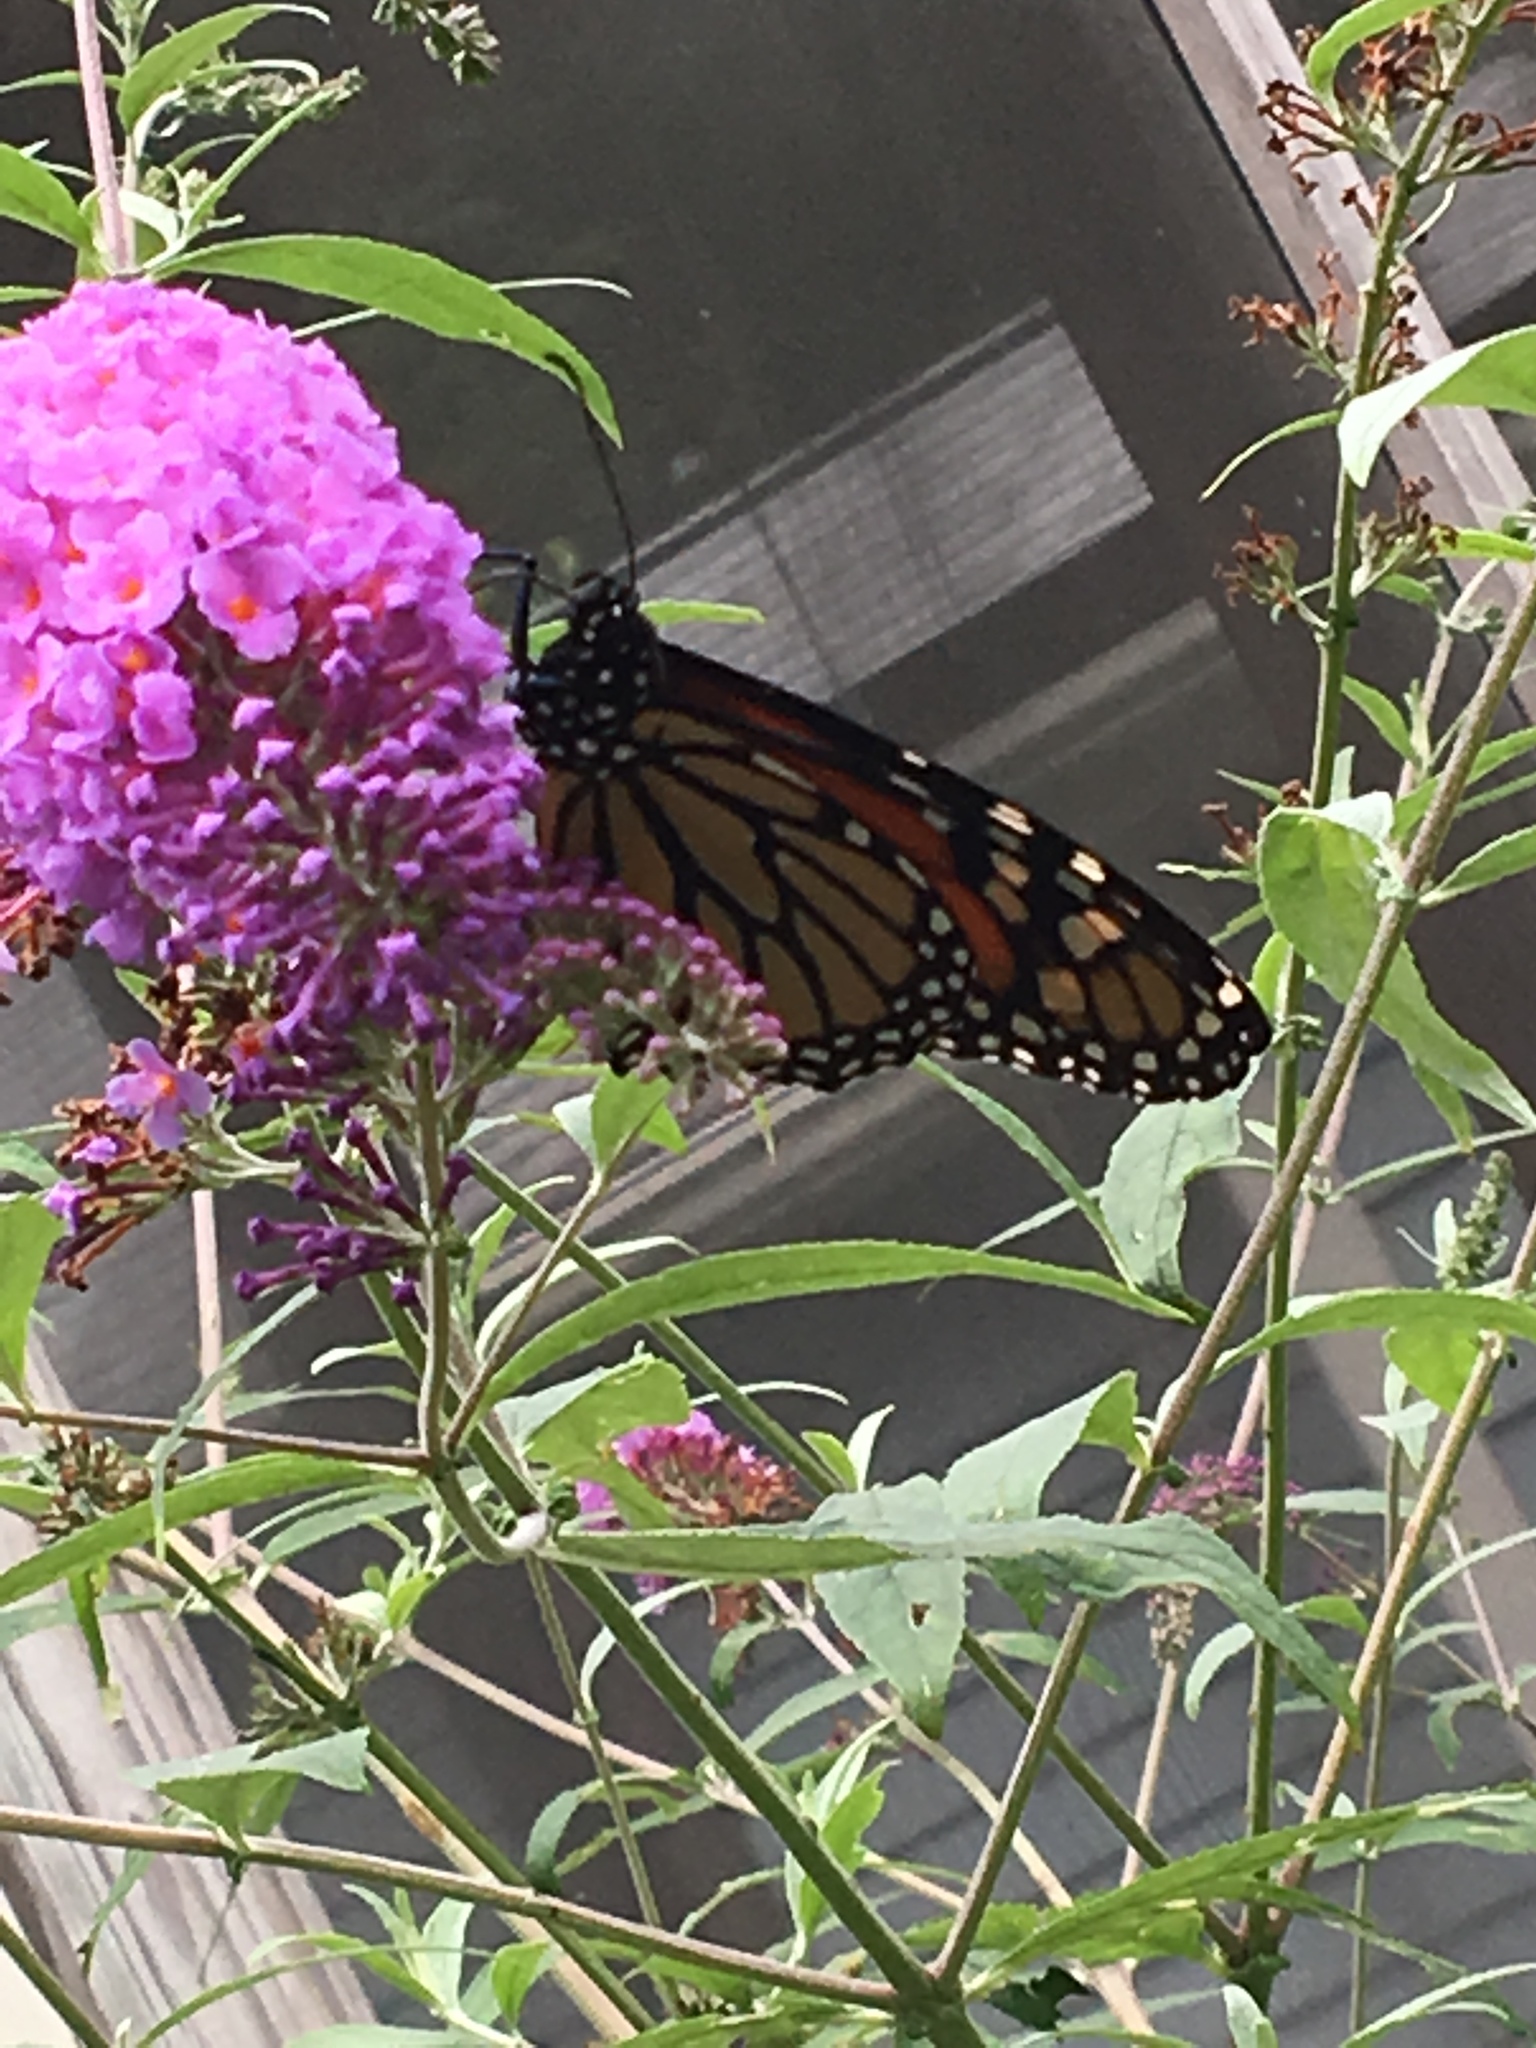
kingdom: Animalia
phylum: Arthropoda
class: Insecta
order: Lepidoptera
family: Nymphalidae
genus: Danaus
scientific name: Danaus plexippus
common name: Monarch
